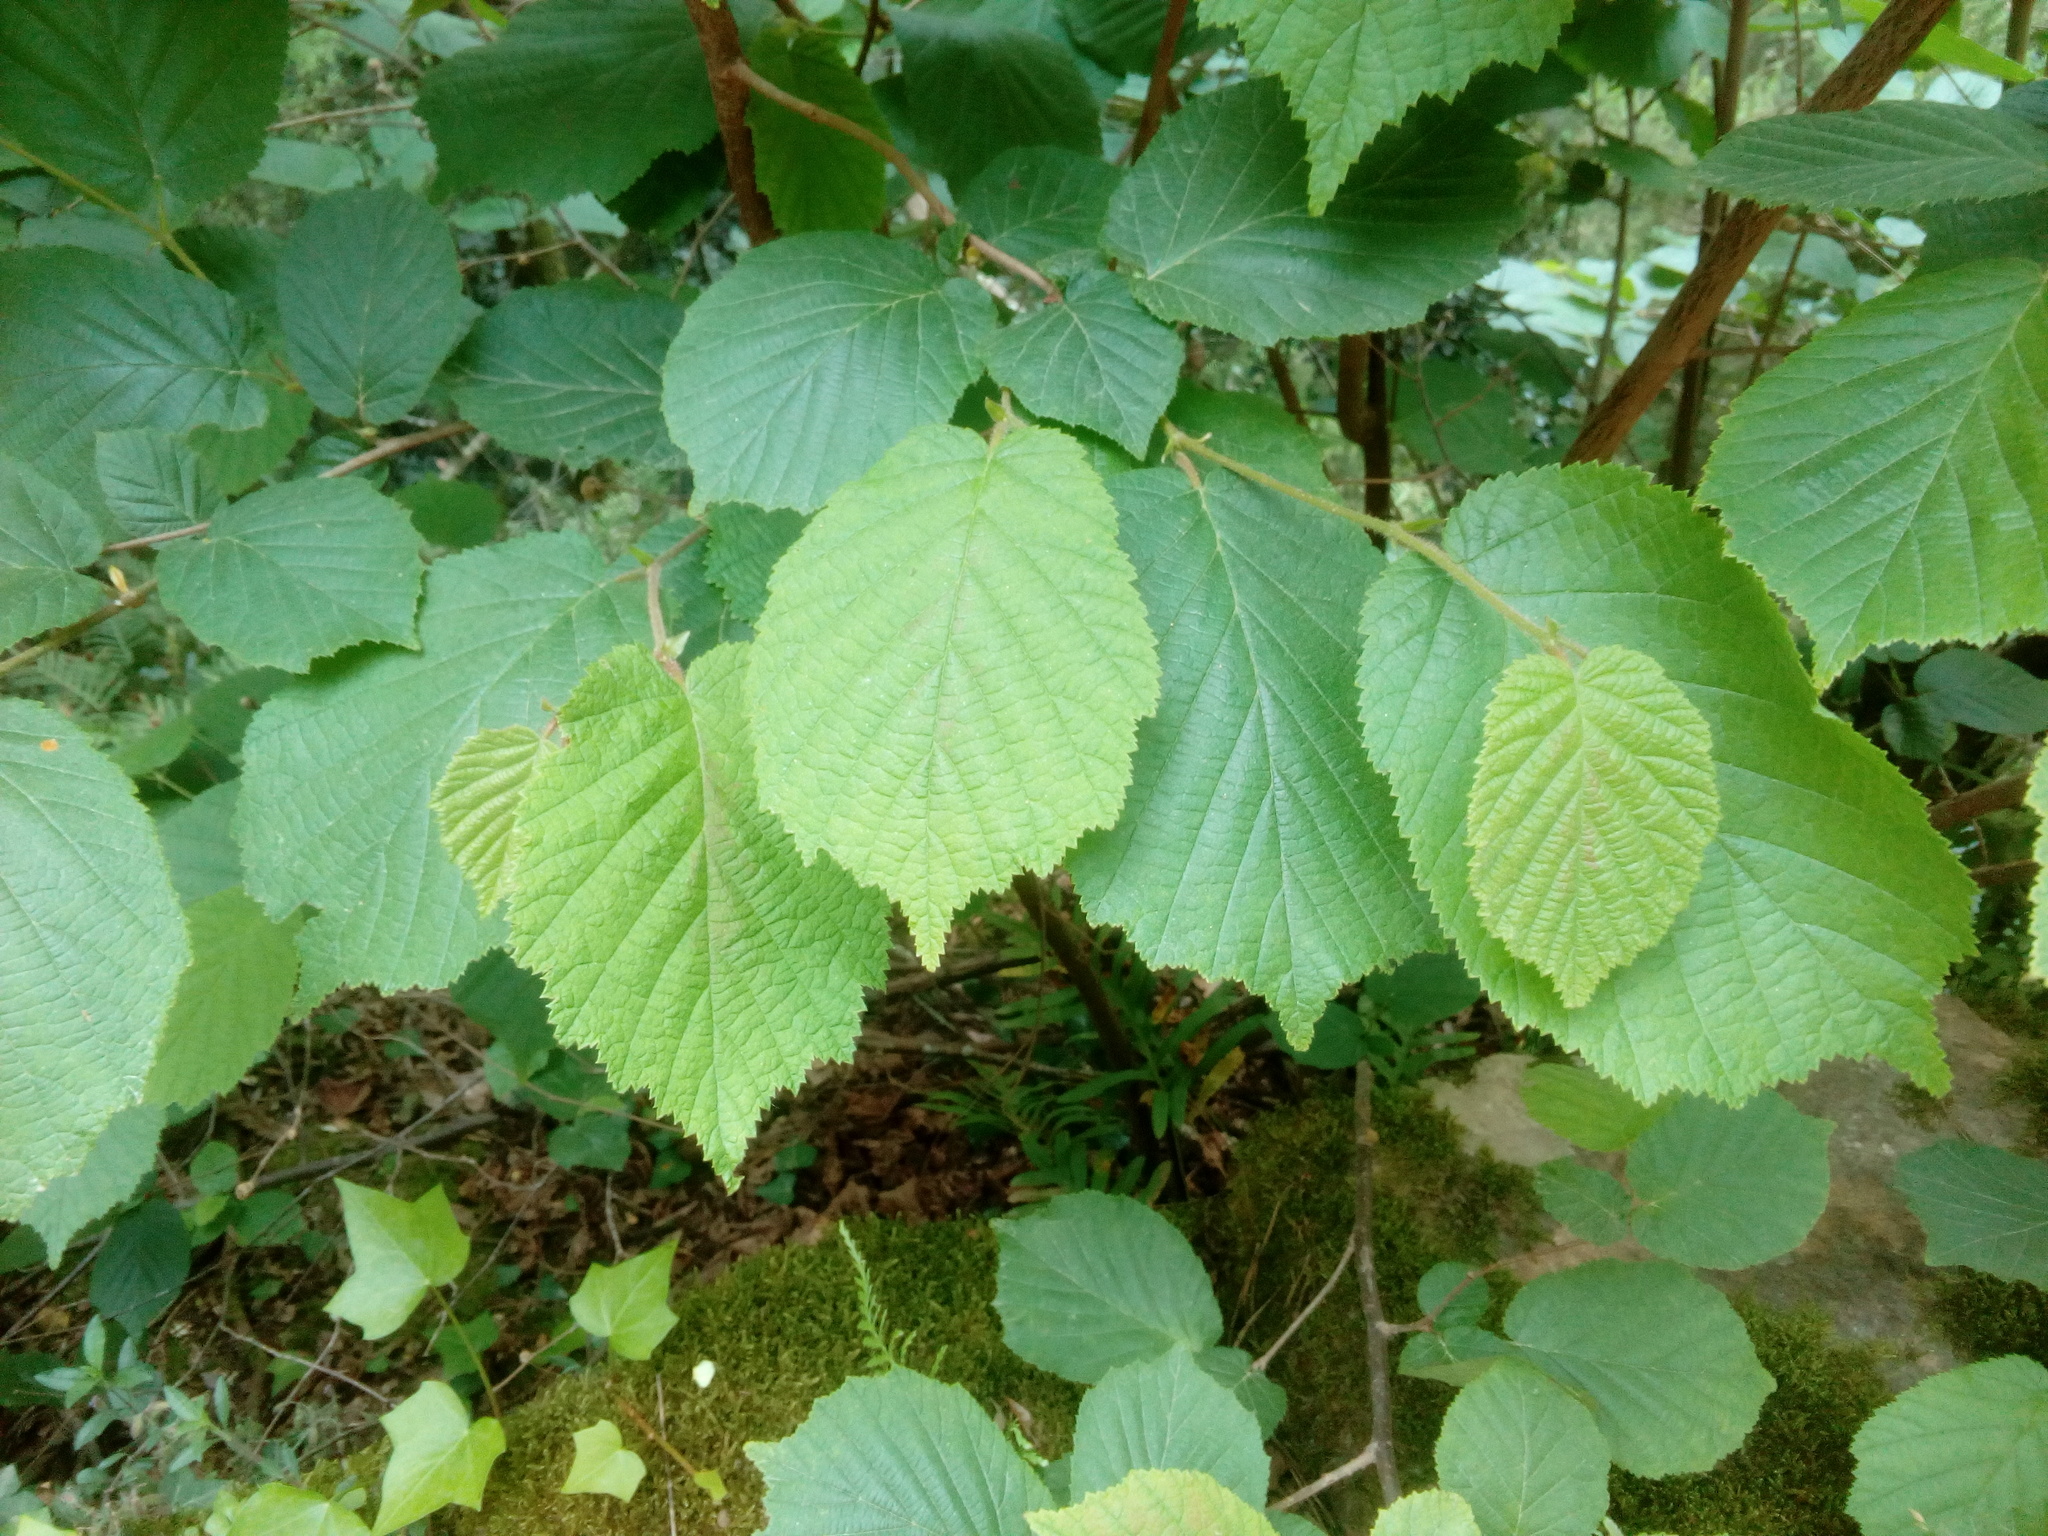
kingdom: Plantae
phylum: Tracheophyta
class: Magnoliopsida
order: Fagales
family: Betulaceae
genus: Corylus
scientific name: Corylus avellana
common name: European hazel
